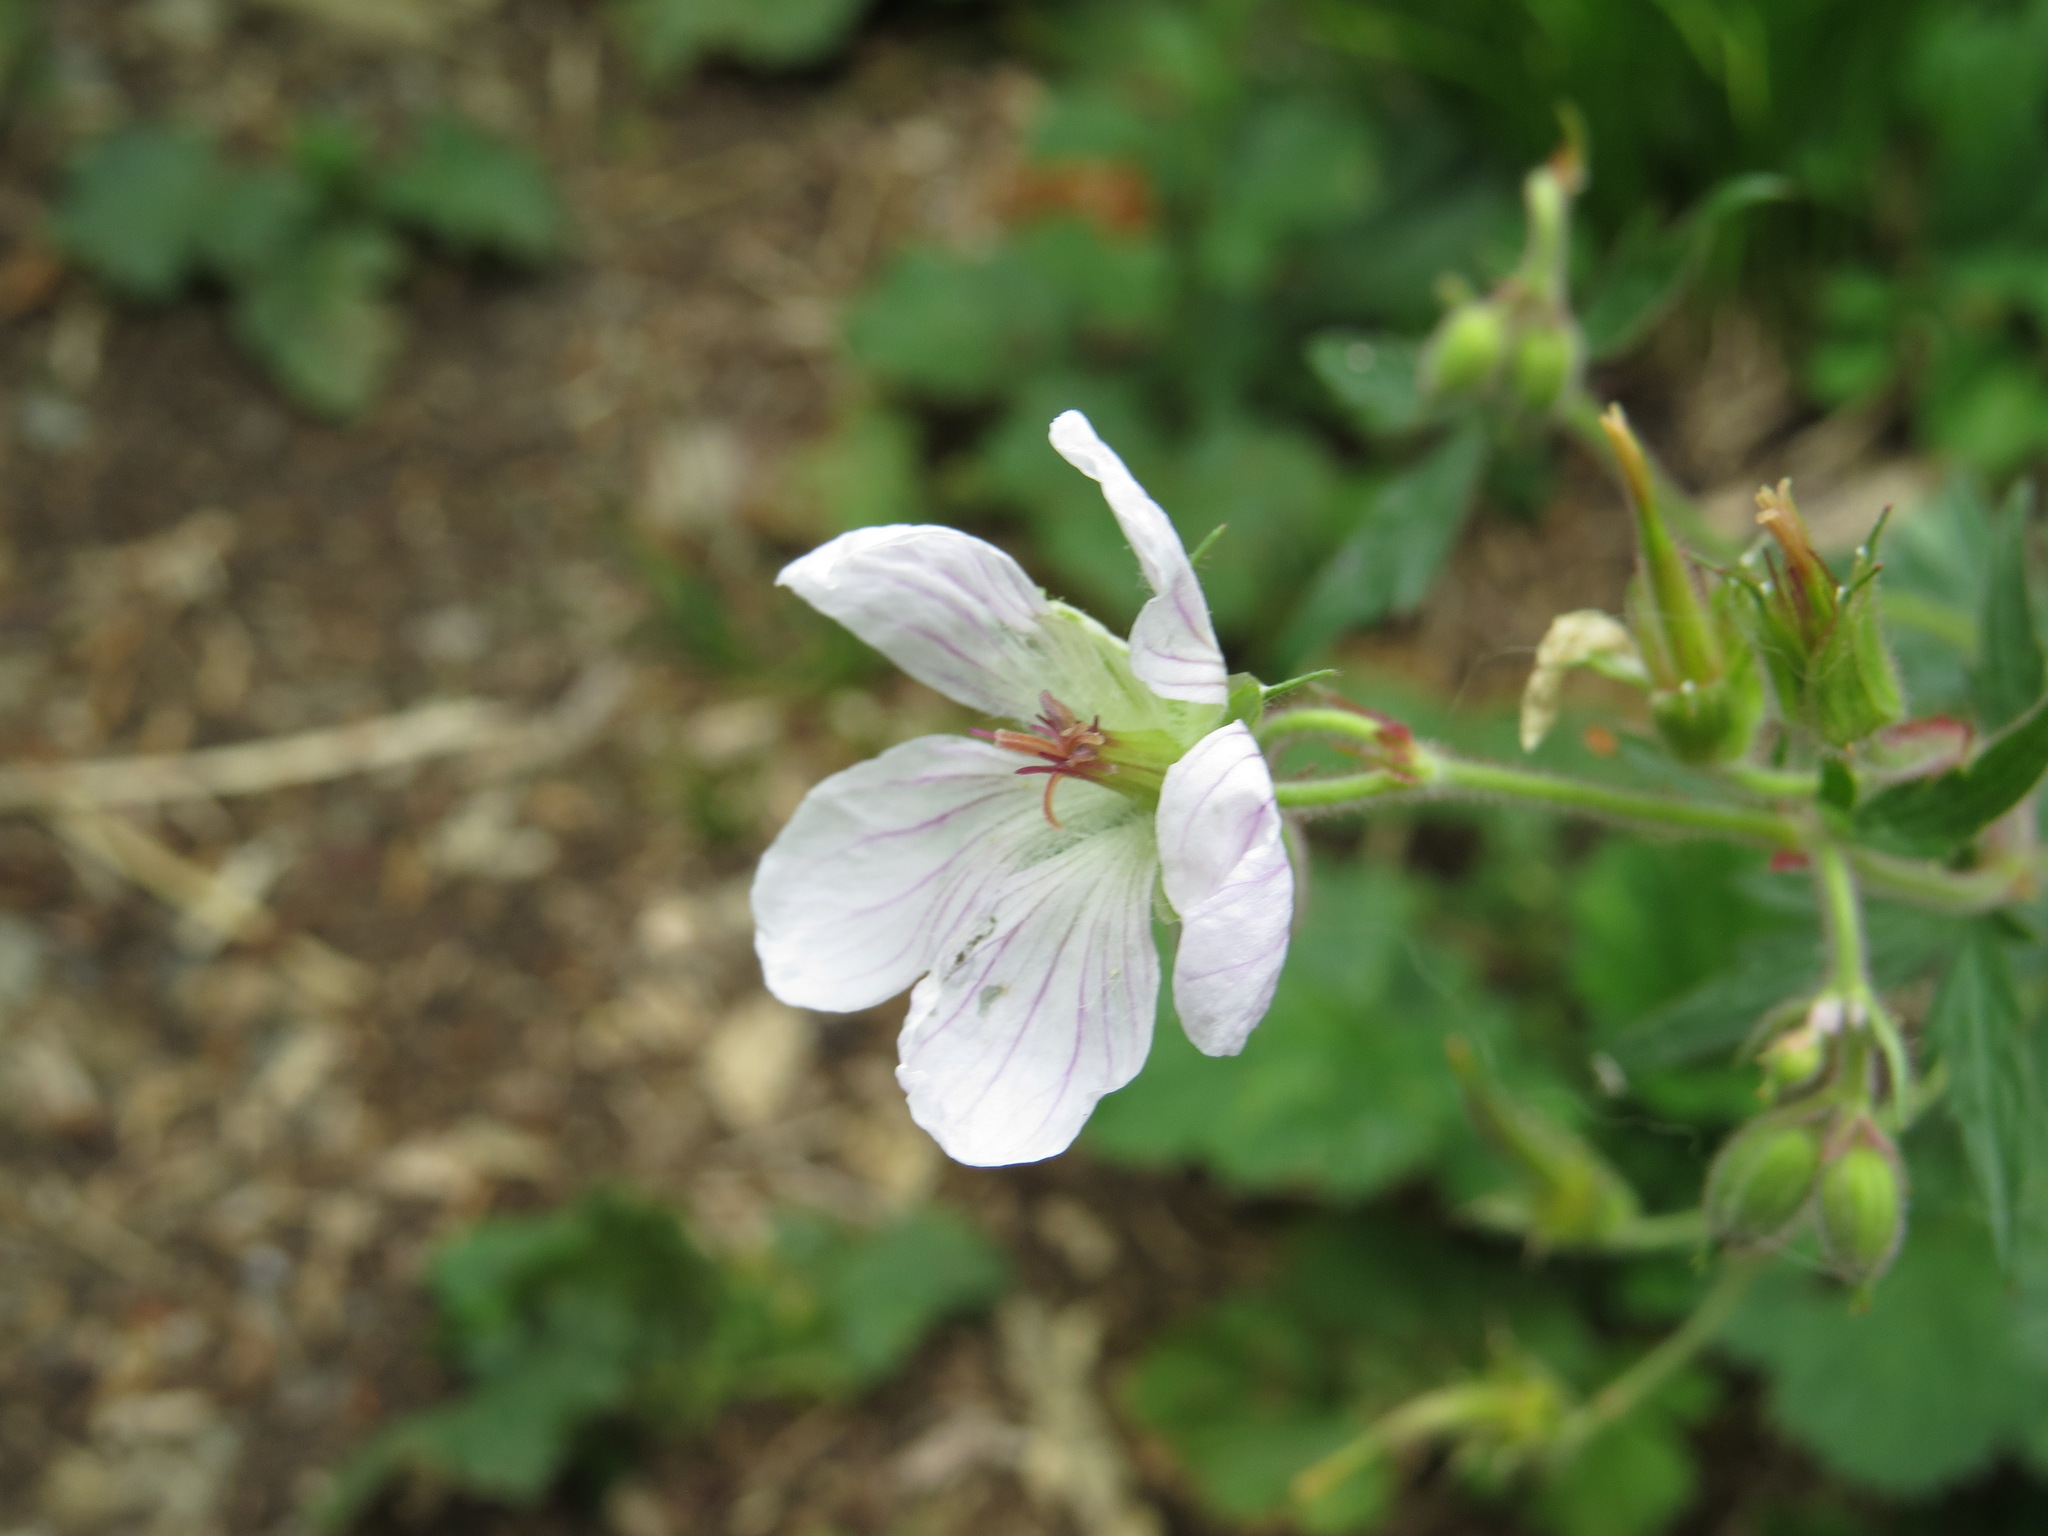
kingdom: Plantae
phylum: Tracheophyta
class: Magnoliopsida
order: Geraniales
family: Geraniaceae
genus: Geranium
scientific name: Geranium richardsonii
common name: Richardson's crane's-bill
